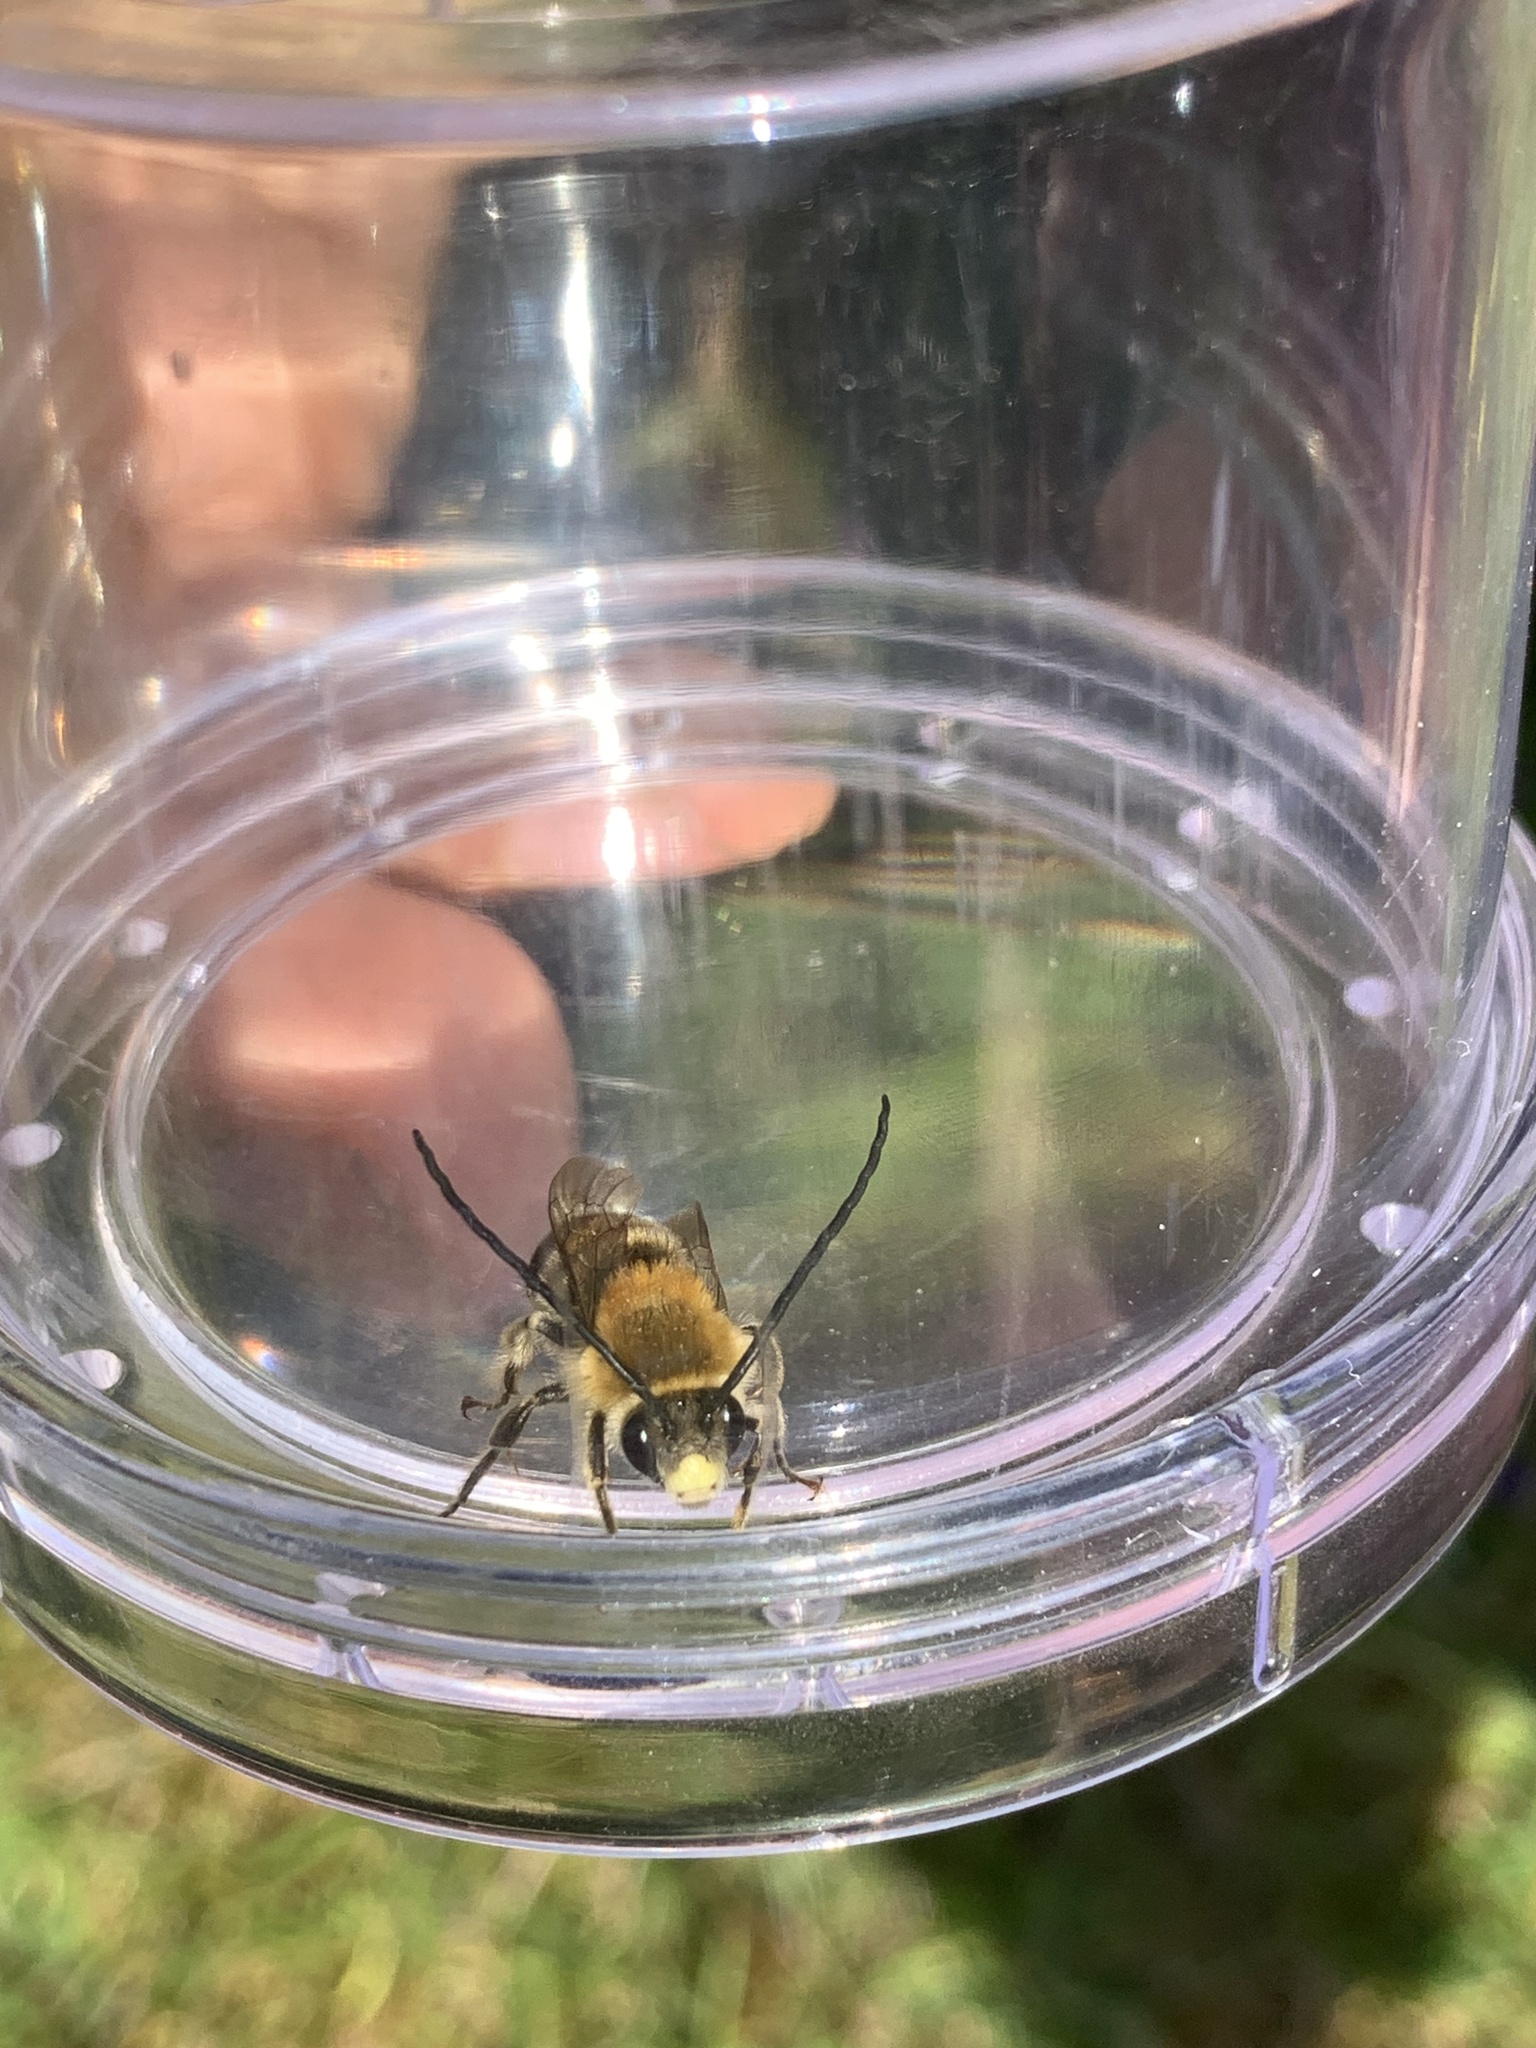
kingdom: Animalia
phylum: Arthropoda
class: Insecta
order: Hymenoptera
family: Apidae
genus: Eucera
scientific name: Eucera longicornis
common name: Long-horned bee
